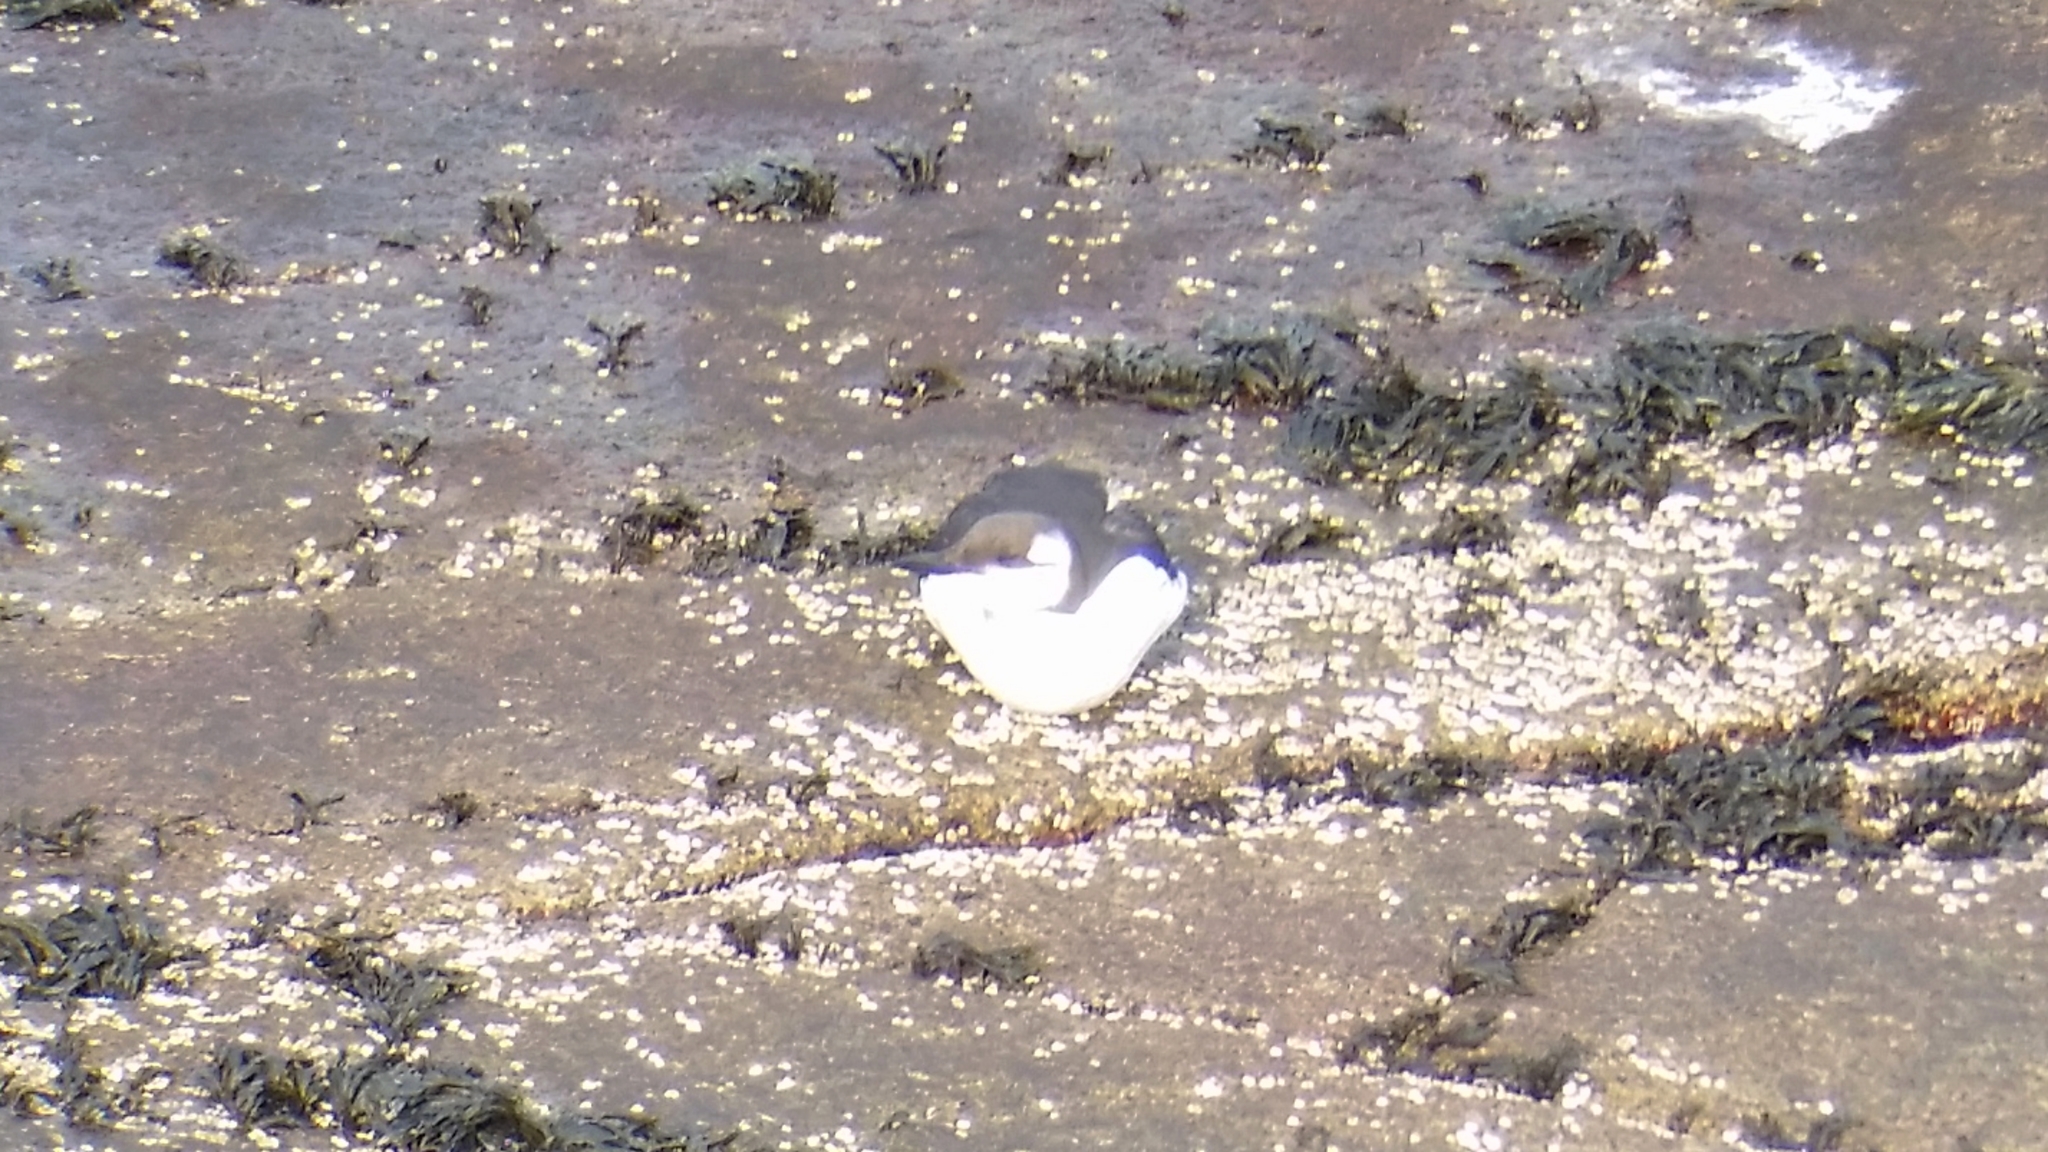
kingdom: Animalia
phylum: Chordata
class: Aves
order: Charadriiformes
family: Alcidae
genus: Uria
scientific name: Uria aalge
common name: Common murre
